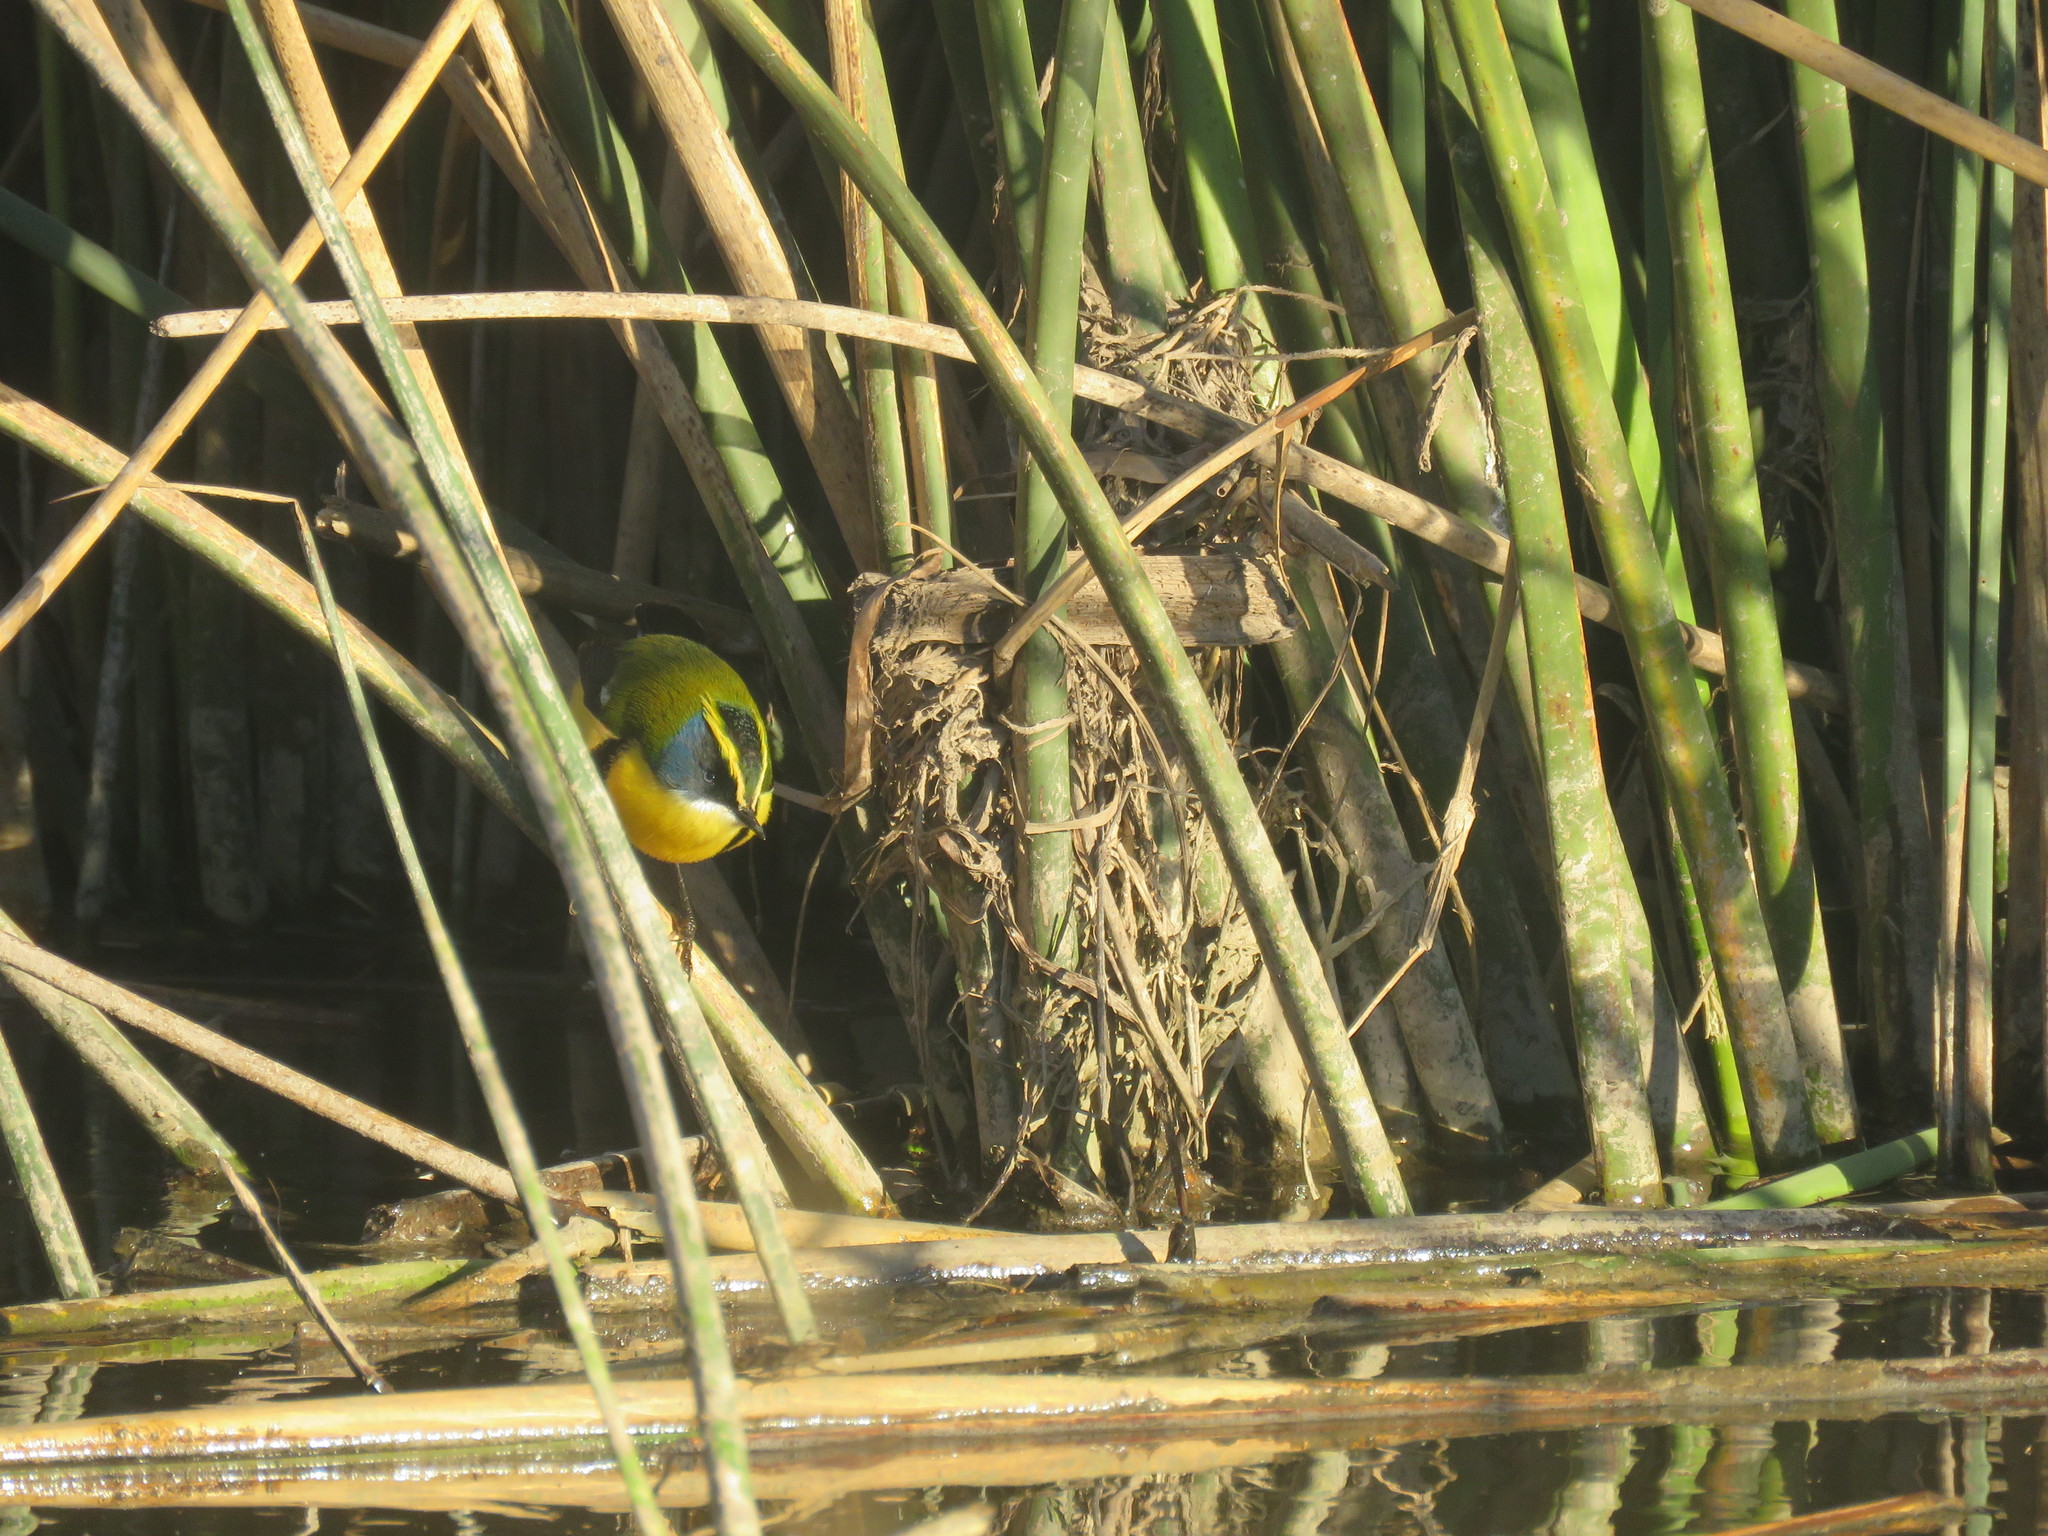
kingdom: Animalia
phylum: Chordata
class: Aves
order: Passeriformes
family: Tyrannidae
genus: Tachuris
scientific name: Tachuris rubrigastra
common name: Many-colored rush tyrant
